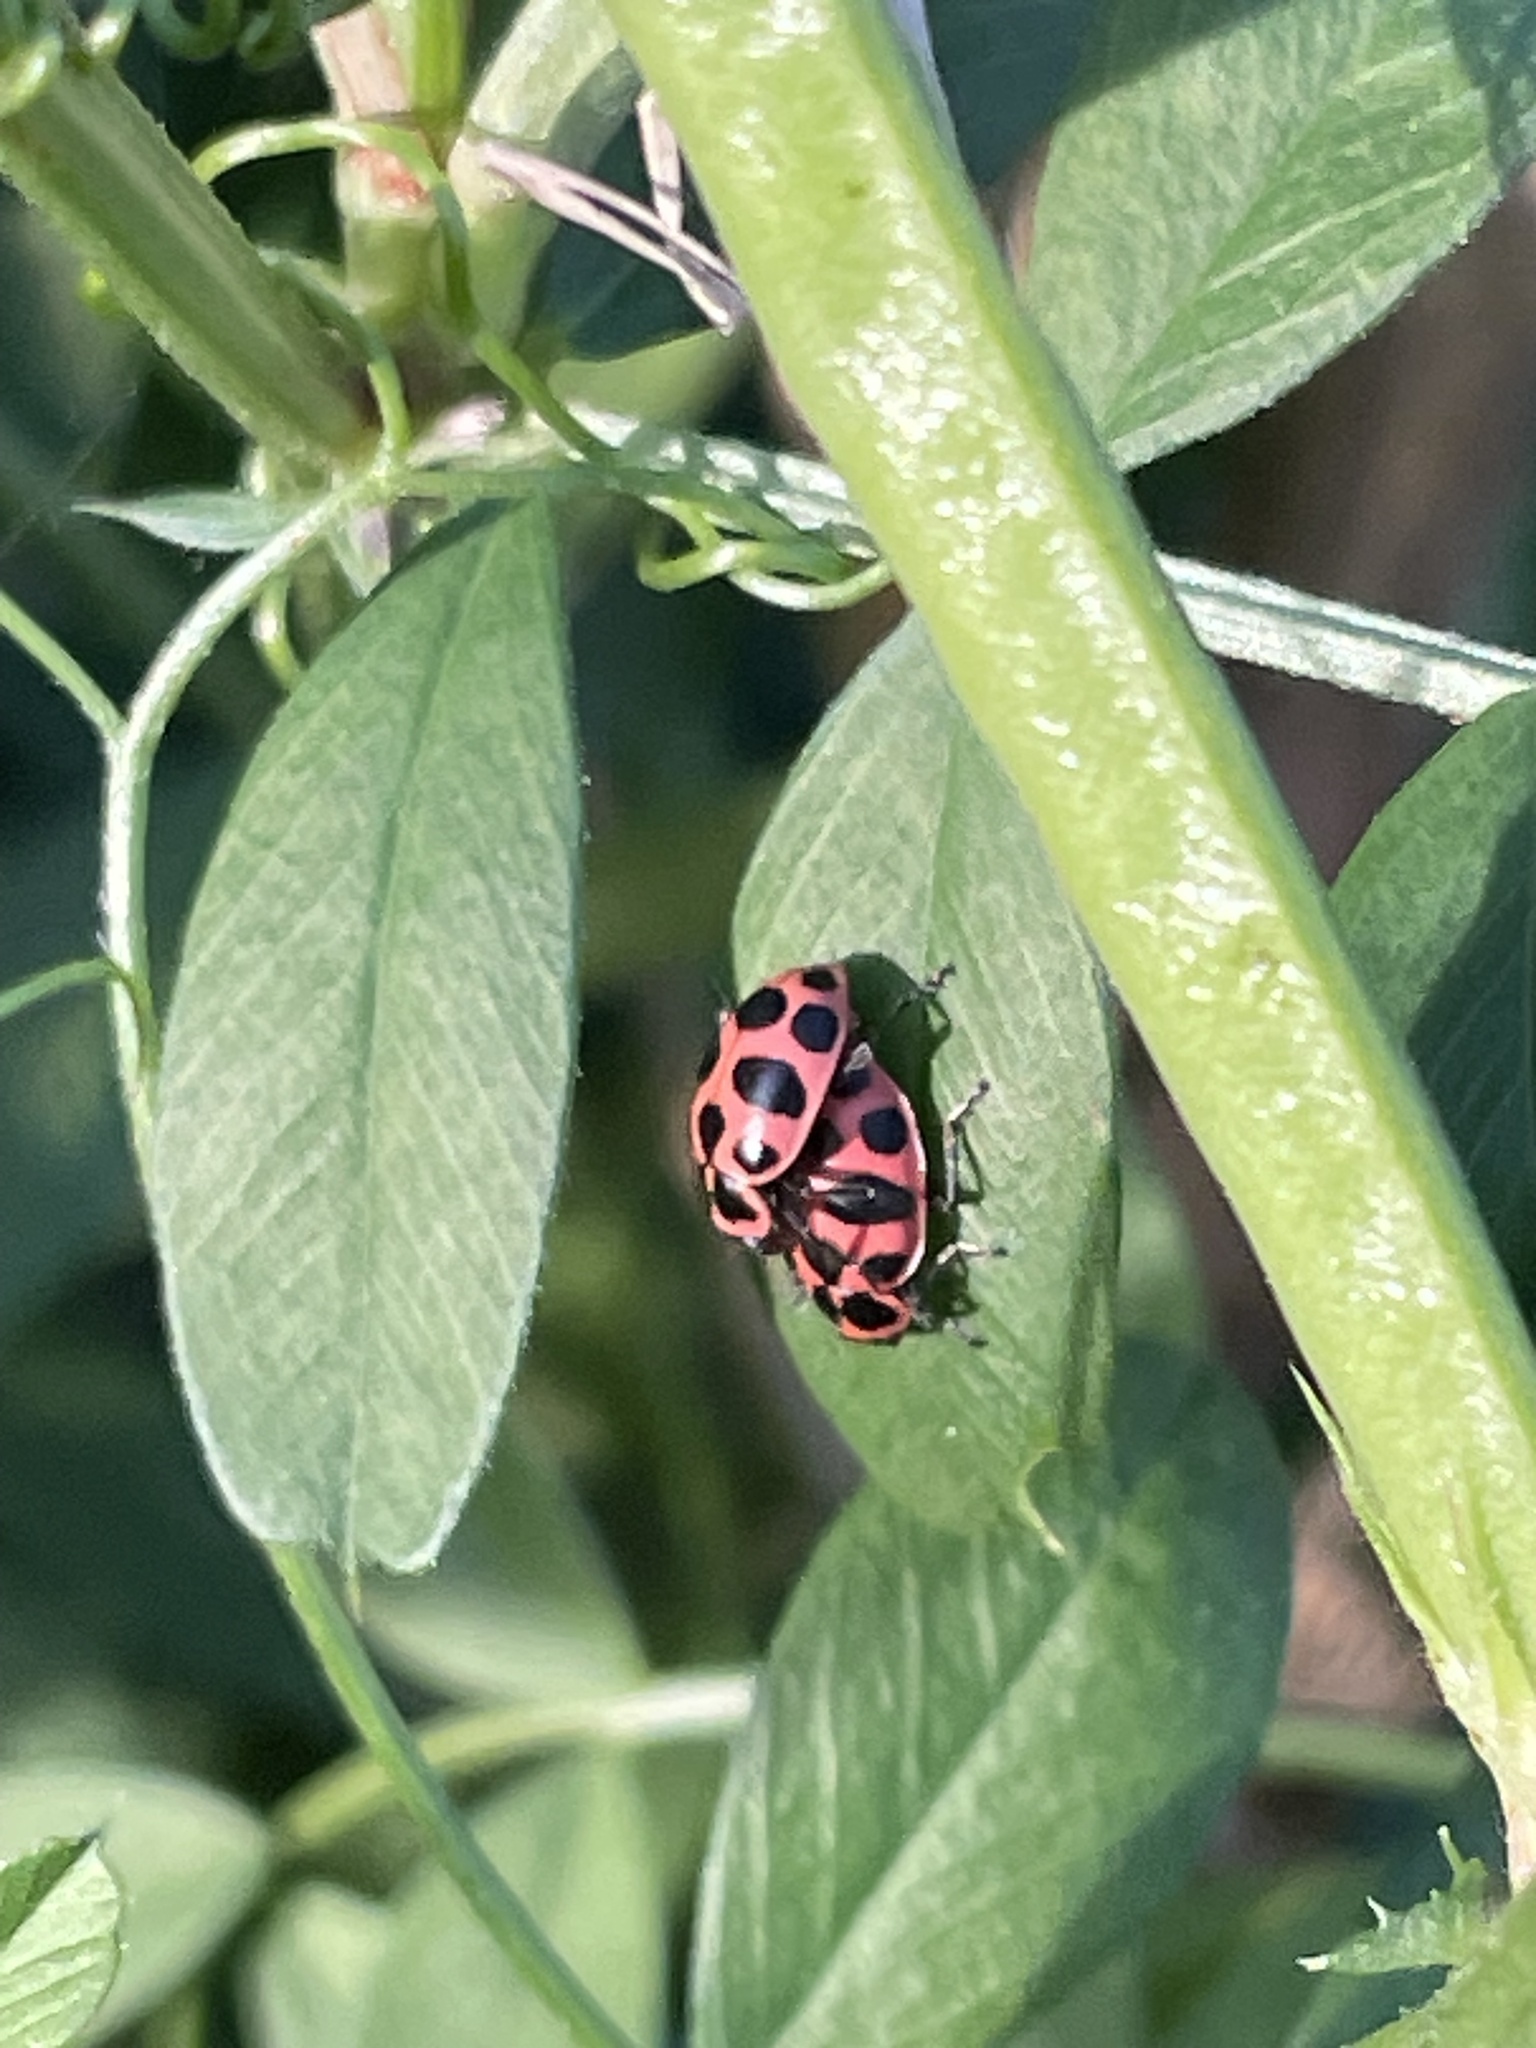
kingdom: Animalia
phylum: Arthropoda
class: Insecta
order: Coleoptera
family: Coccinellidae
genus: Coleomegilla
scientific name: Coleomegilla maculata
